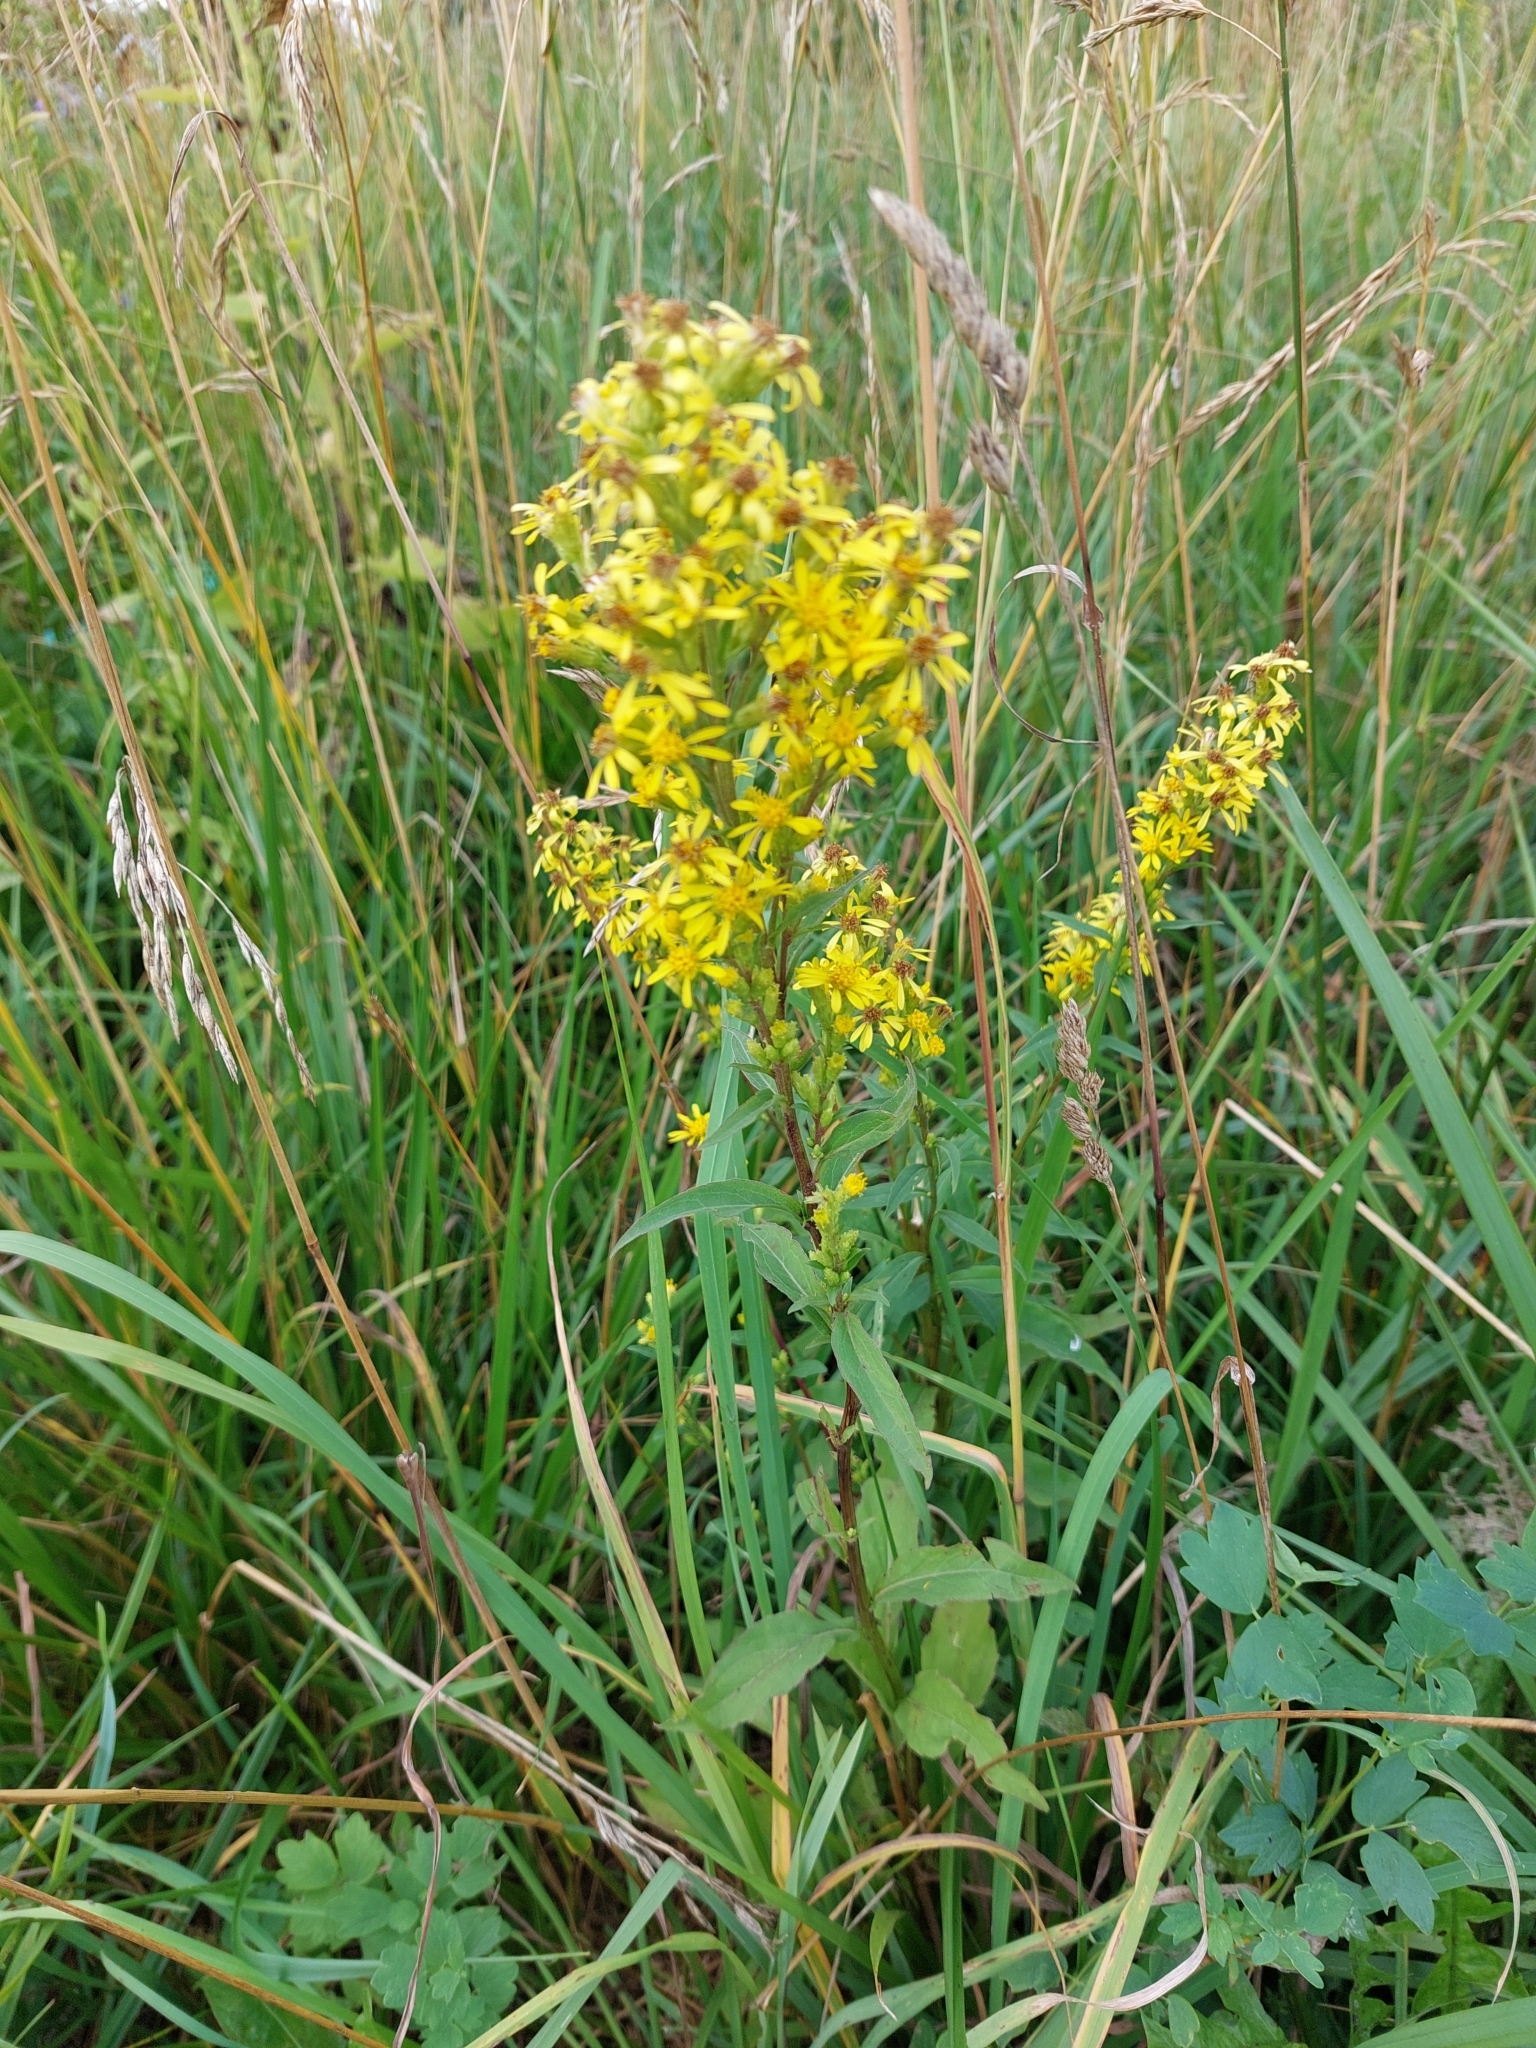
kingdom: Plantae
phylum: Tracheophyta
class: Magnoliopsida
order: Asterales
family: Asteraceae
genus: Solidago
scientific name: Solidago virgaurea
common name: Goldenrod
